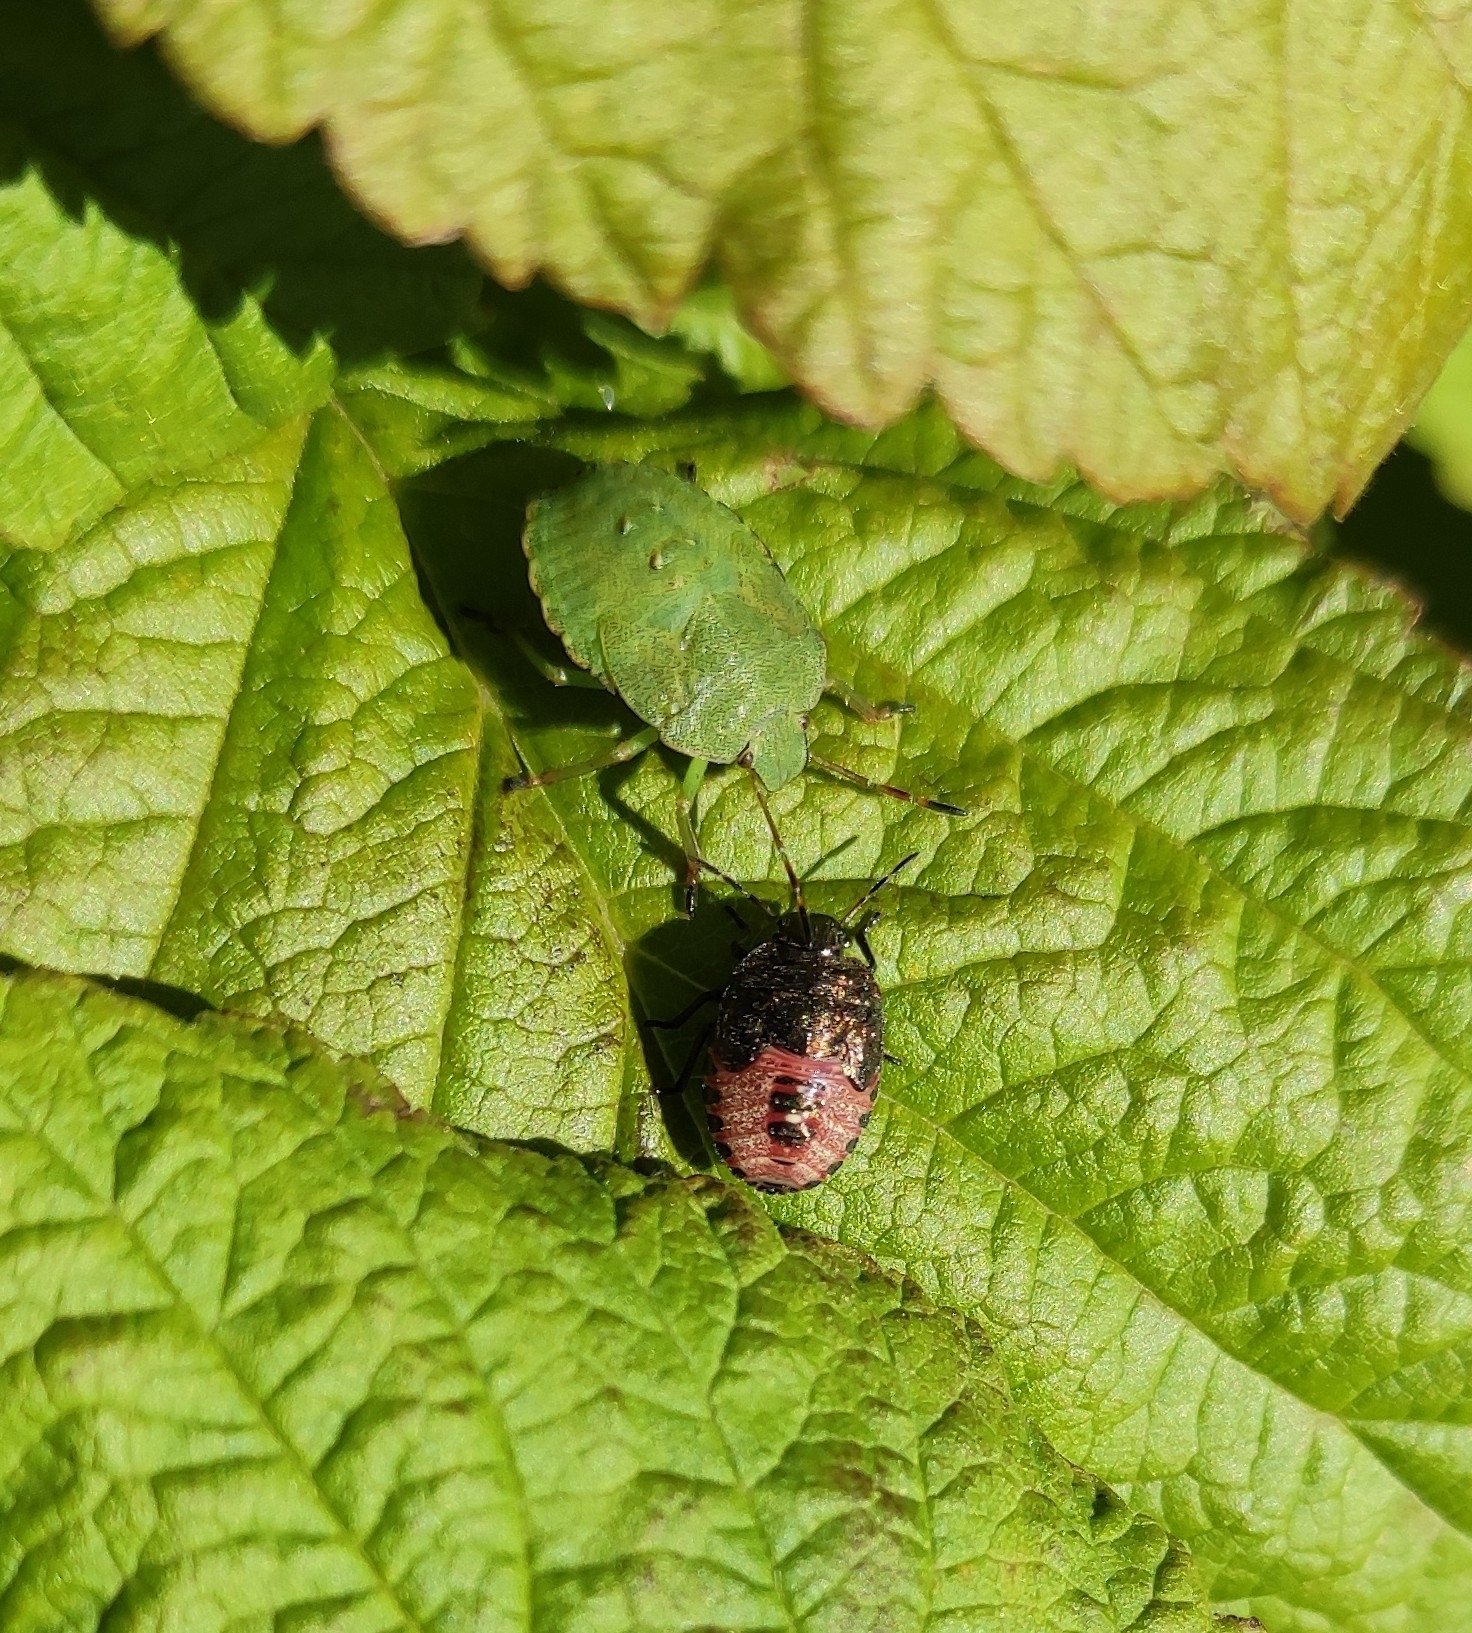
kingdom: Animalia
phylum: Arthropoda
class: Insecta
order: Hemiptera
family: Pentatomidae
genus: Holcostethus
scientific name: Holcostethus strictus
